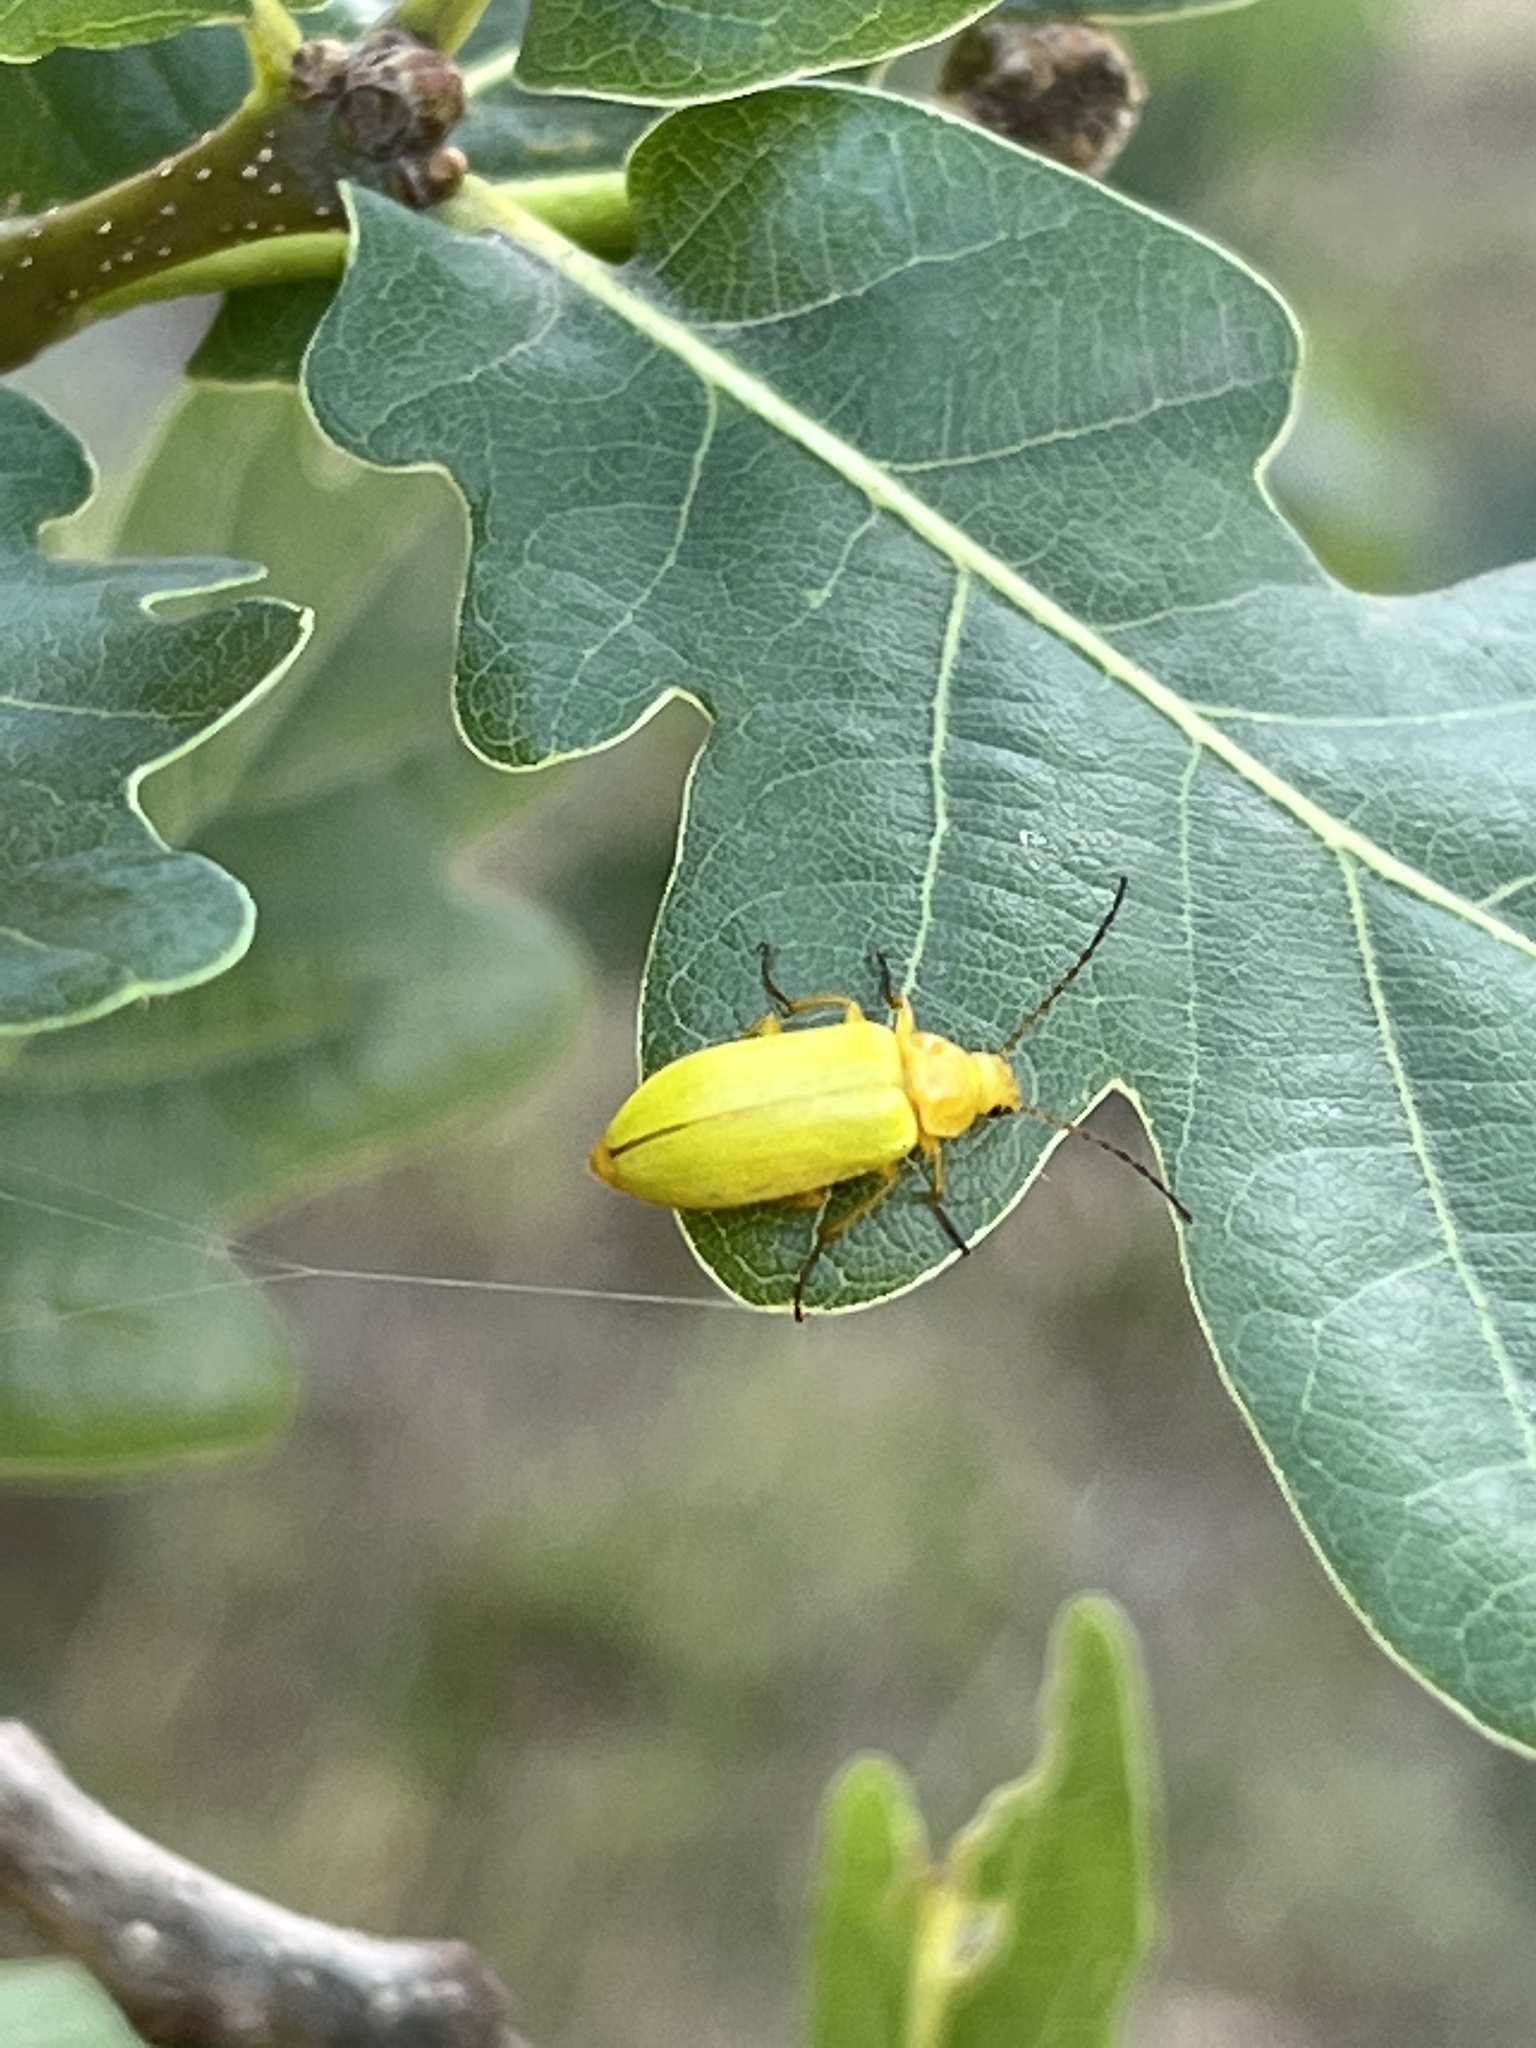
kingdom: Animalia
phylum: Arthropoda
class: Insecta
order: Coleoptera
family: Tenebrionidae
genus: Cteniopus
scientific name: Cteniopus sulphureus
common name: Sulphur beetle
